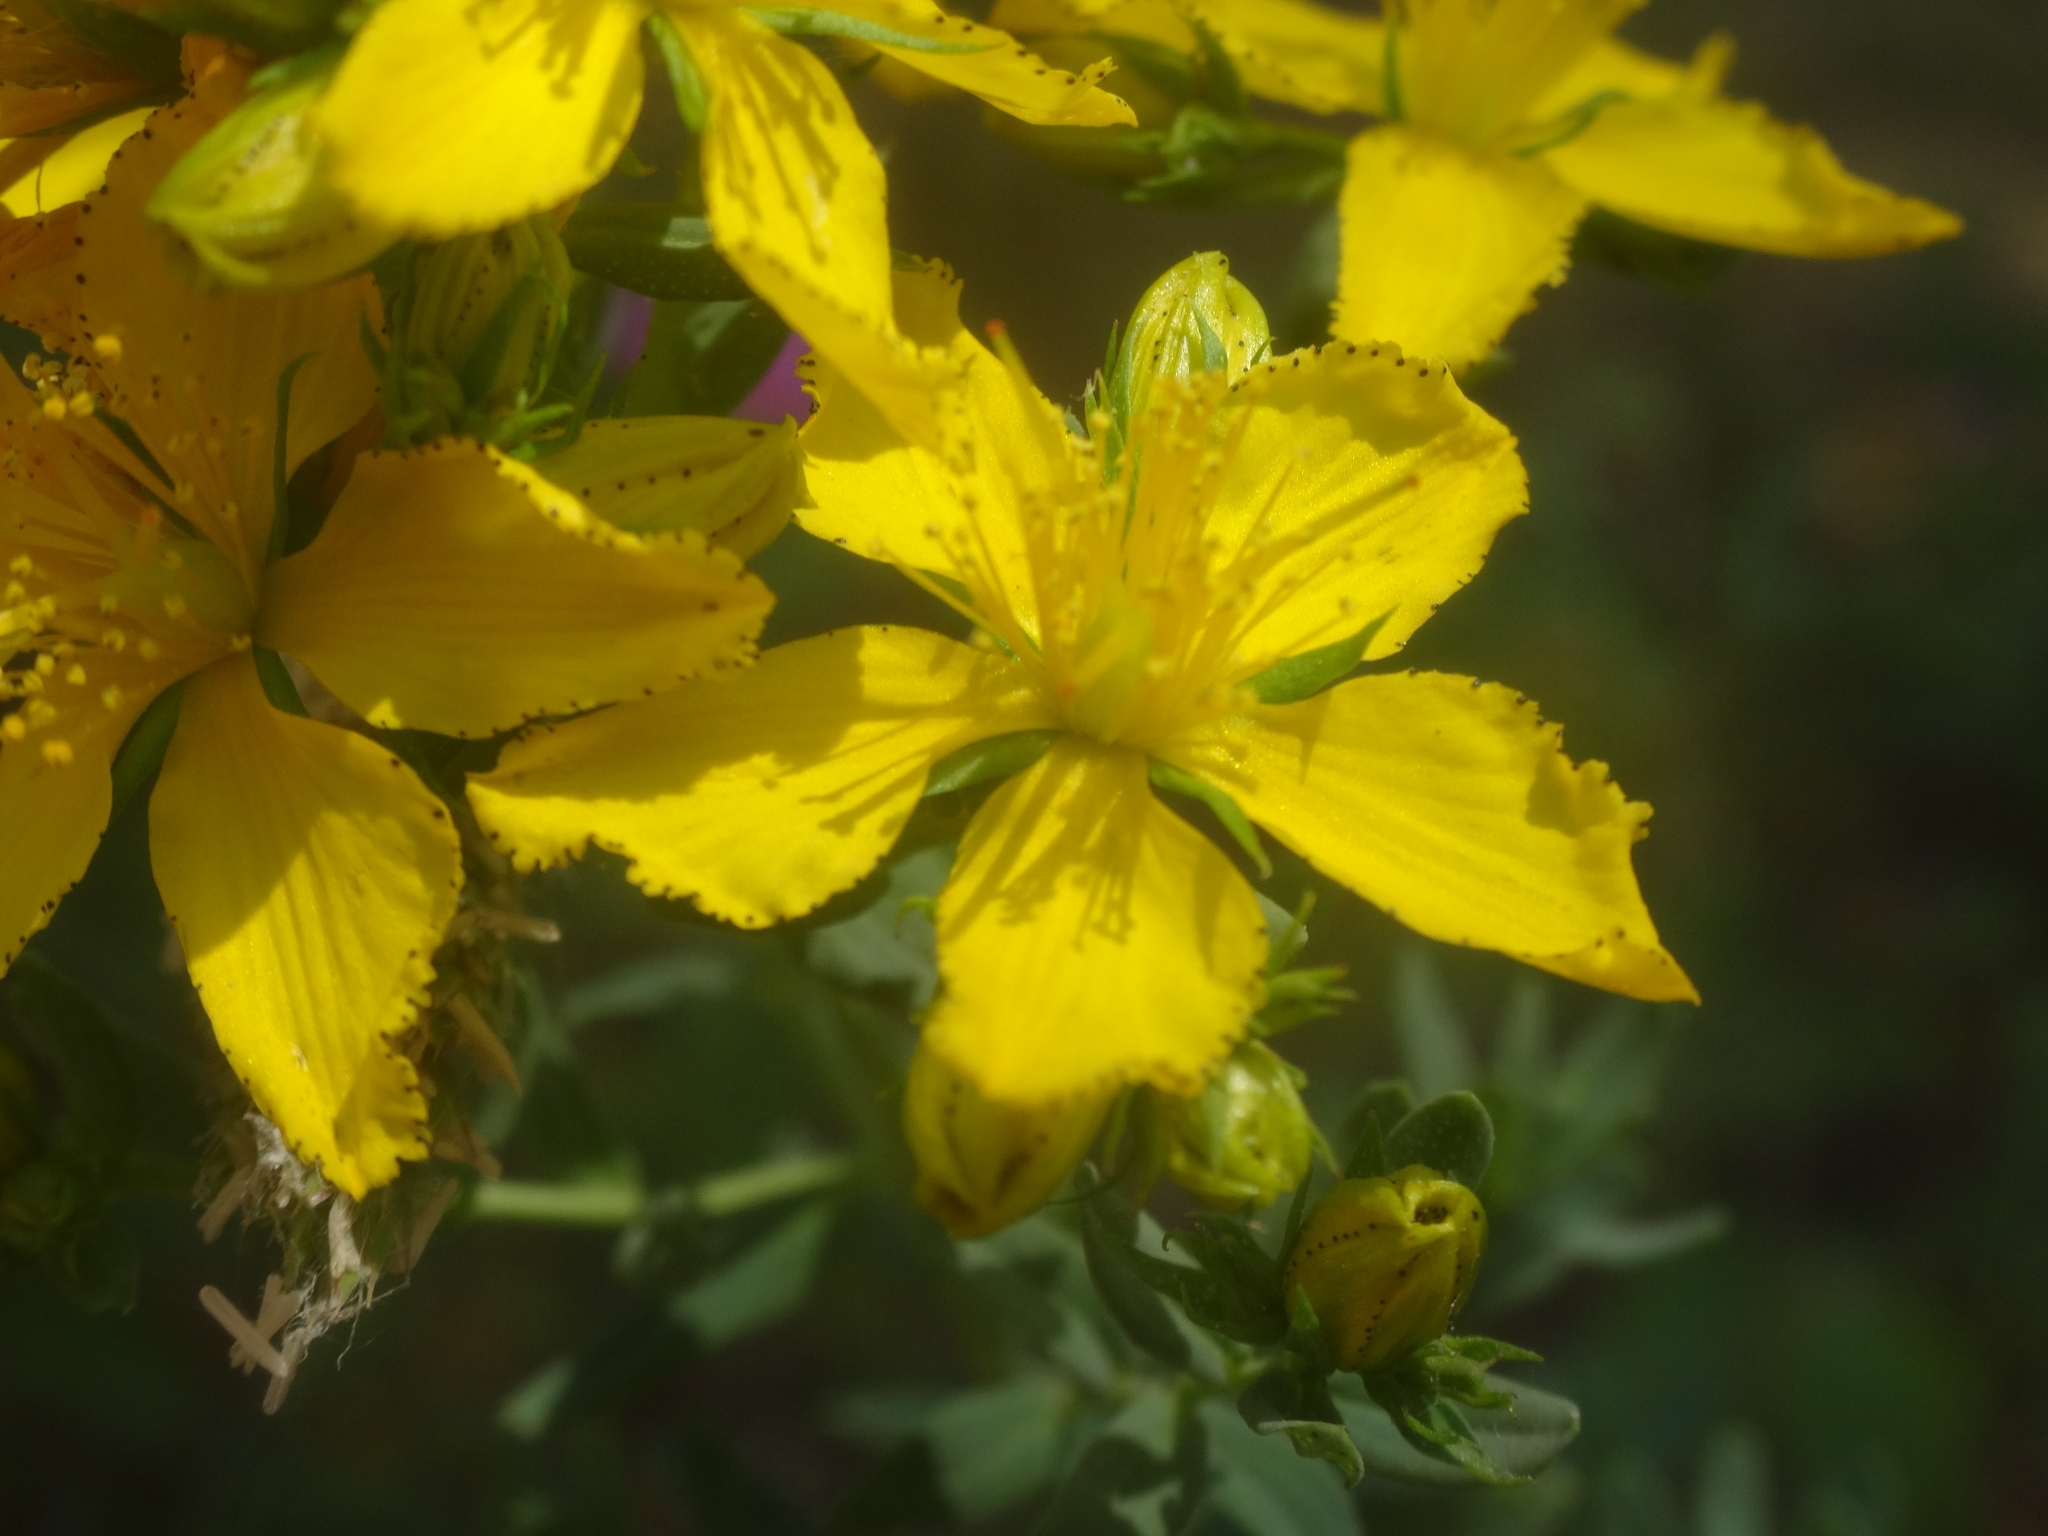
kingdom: Plantae
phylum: Tracheophyta
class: Magnoliopsida
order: Malpighiales
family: Hypericaceae
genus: Hypericum
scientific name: Hypericum perforatum
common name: Common st. johnswort
